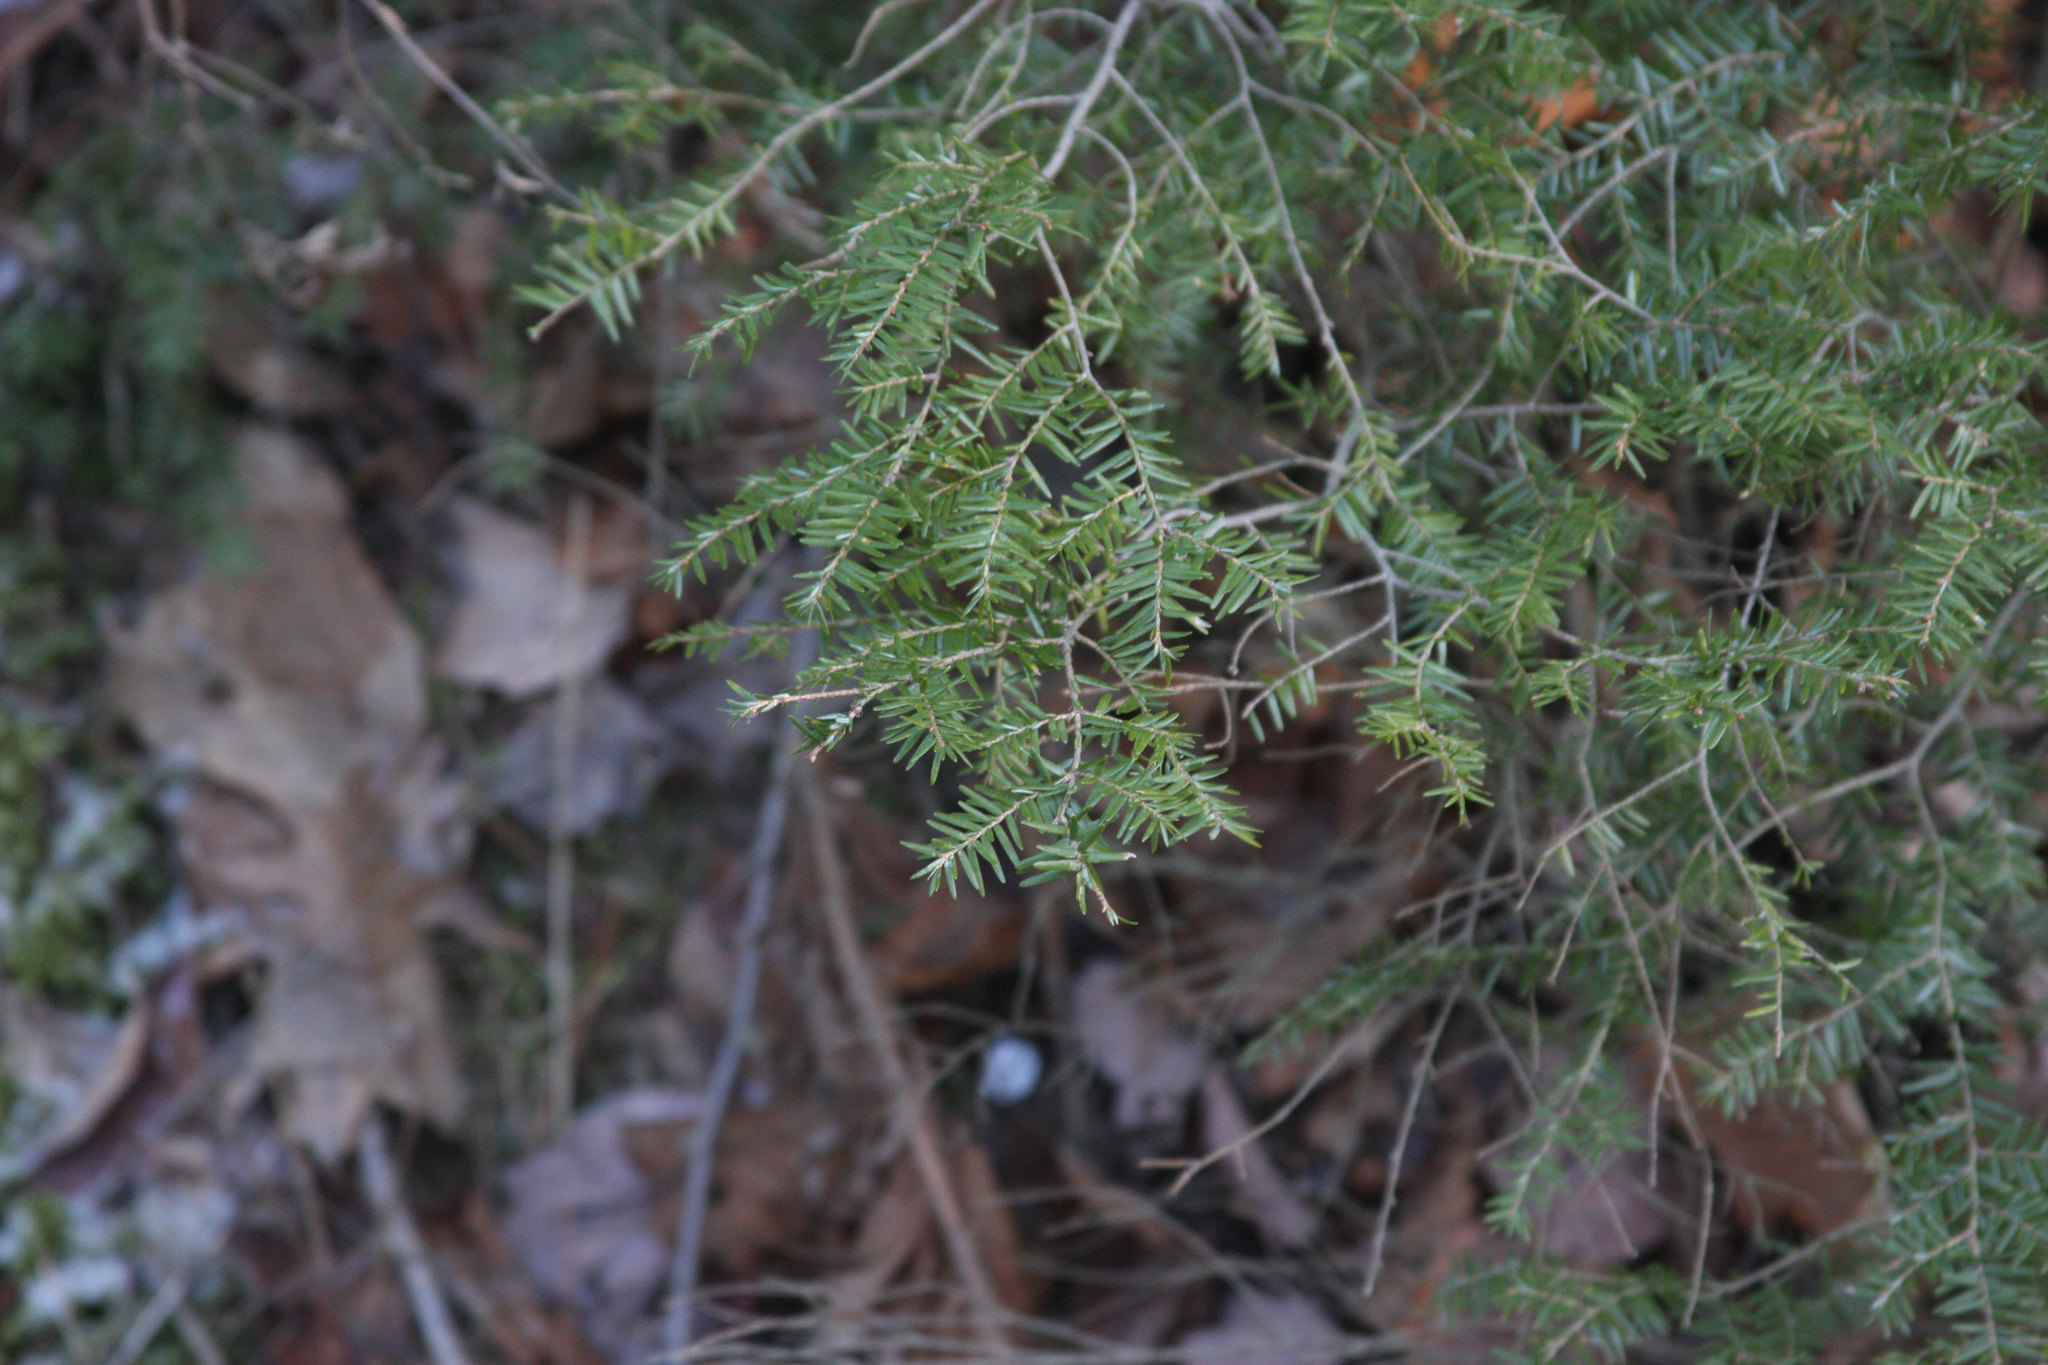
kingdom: Plantae
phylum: Tracheophyta
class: Pinopsida
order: Pinales
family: Pinaceae
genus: Tsuga
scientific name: Tsuga canadensis
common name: Eastern hemlock
